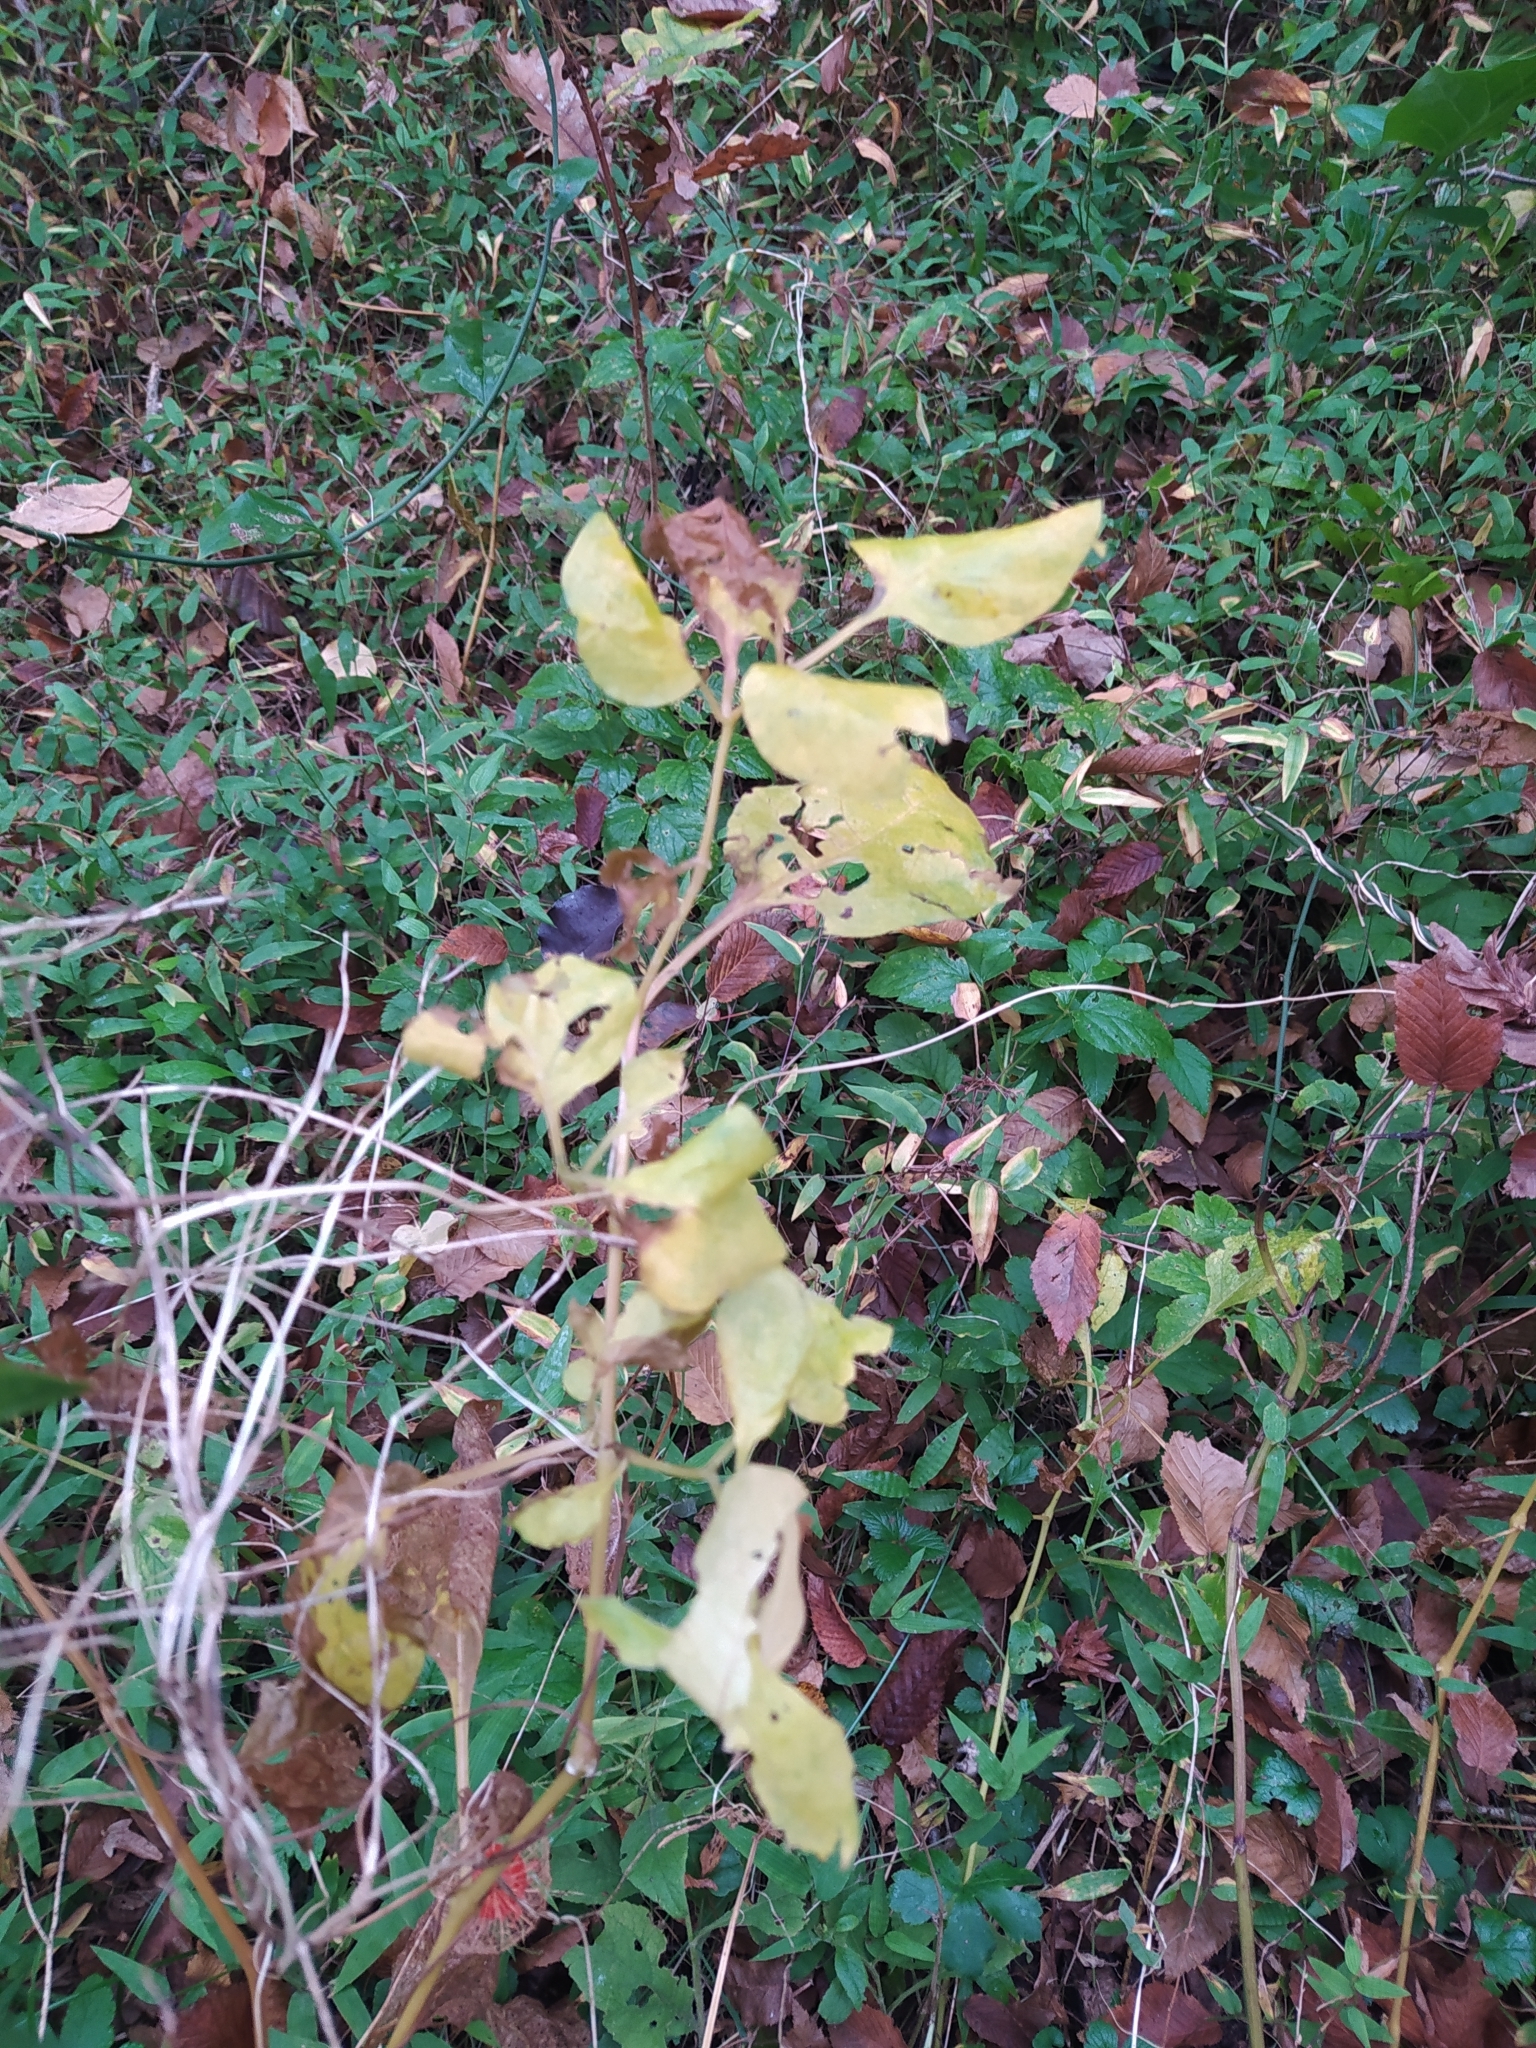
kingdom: Plantae
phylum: Tracheophyta
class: Magnoliopsida
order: Solanales
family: Solanaceae
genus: Alkekengi
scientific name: Alkekengi officinarum
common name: Japanese-lantern
